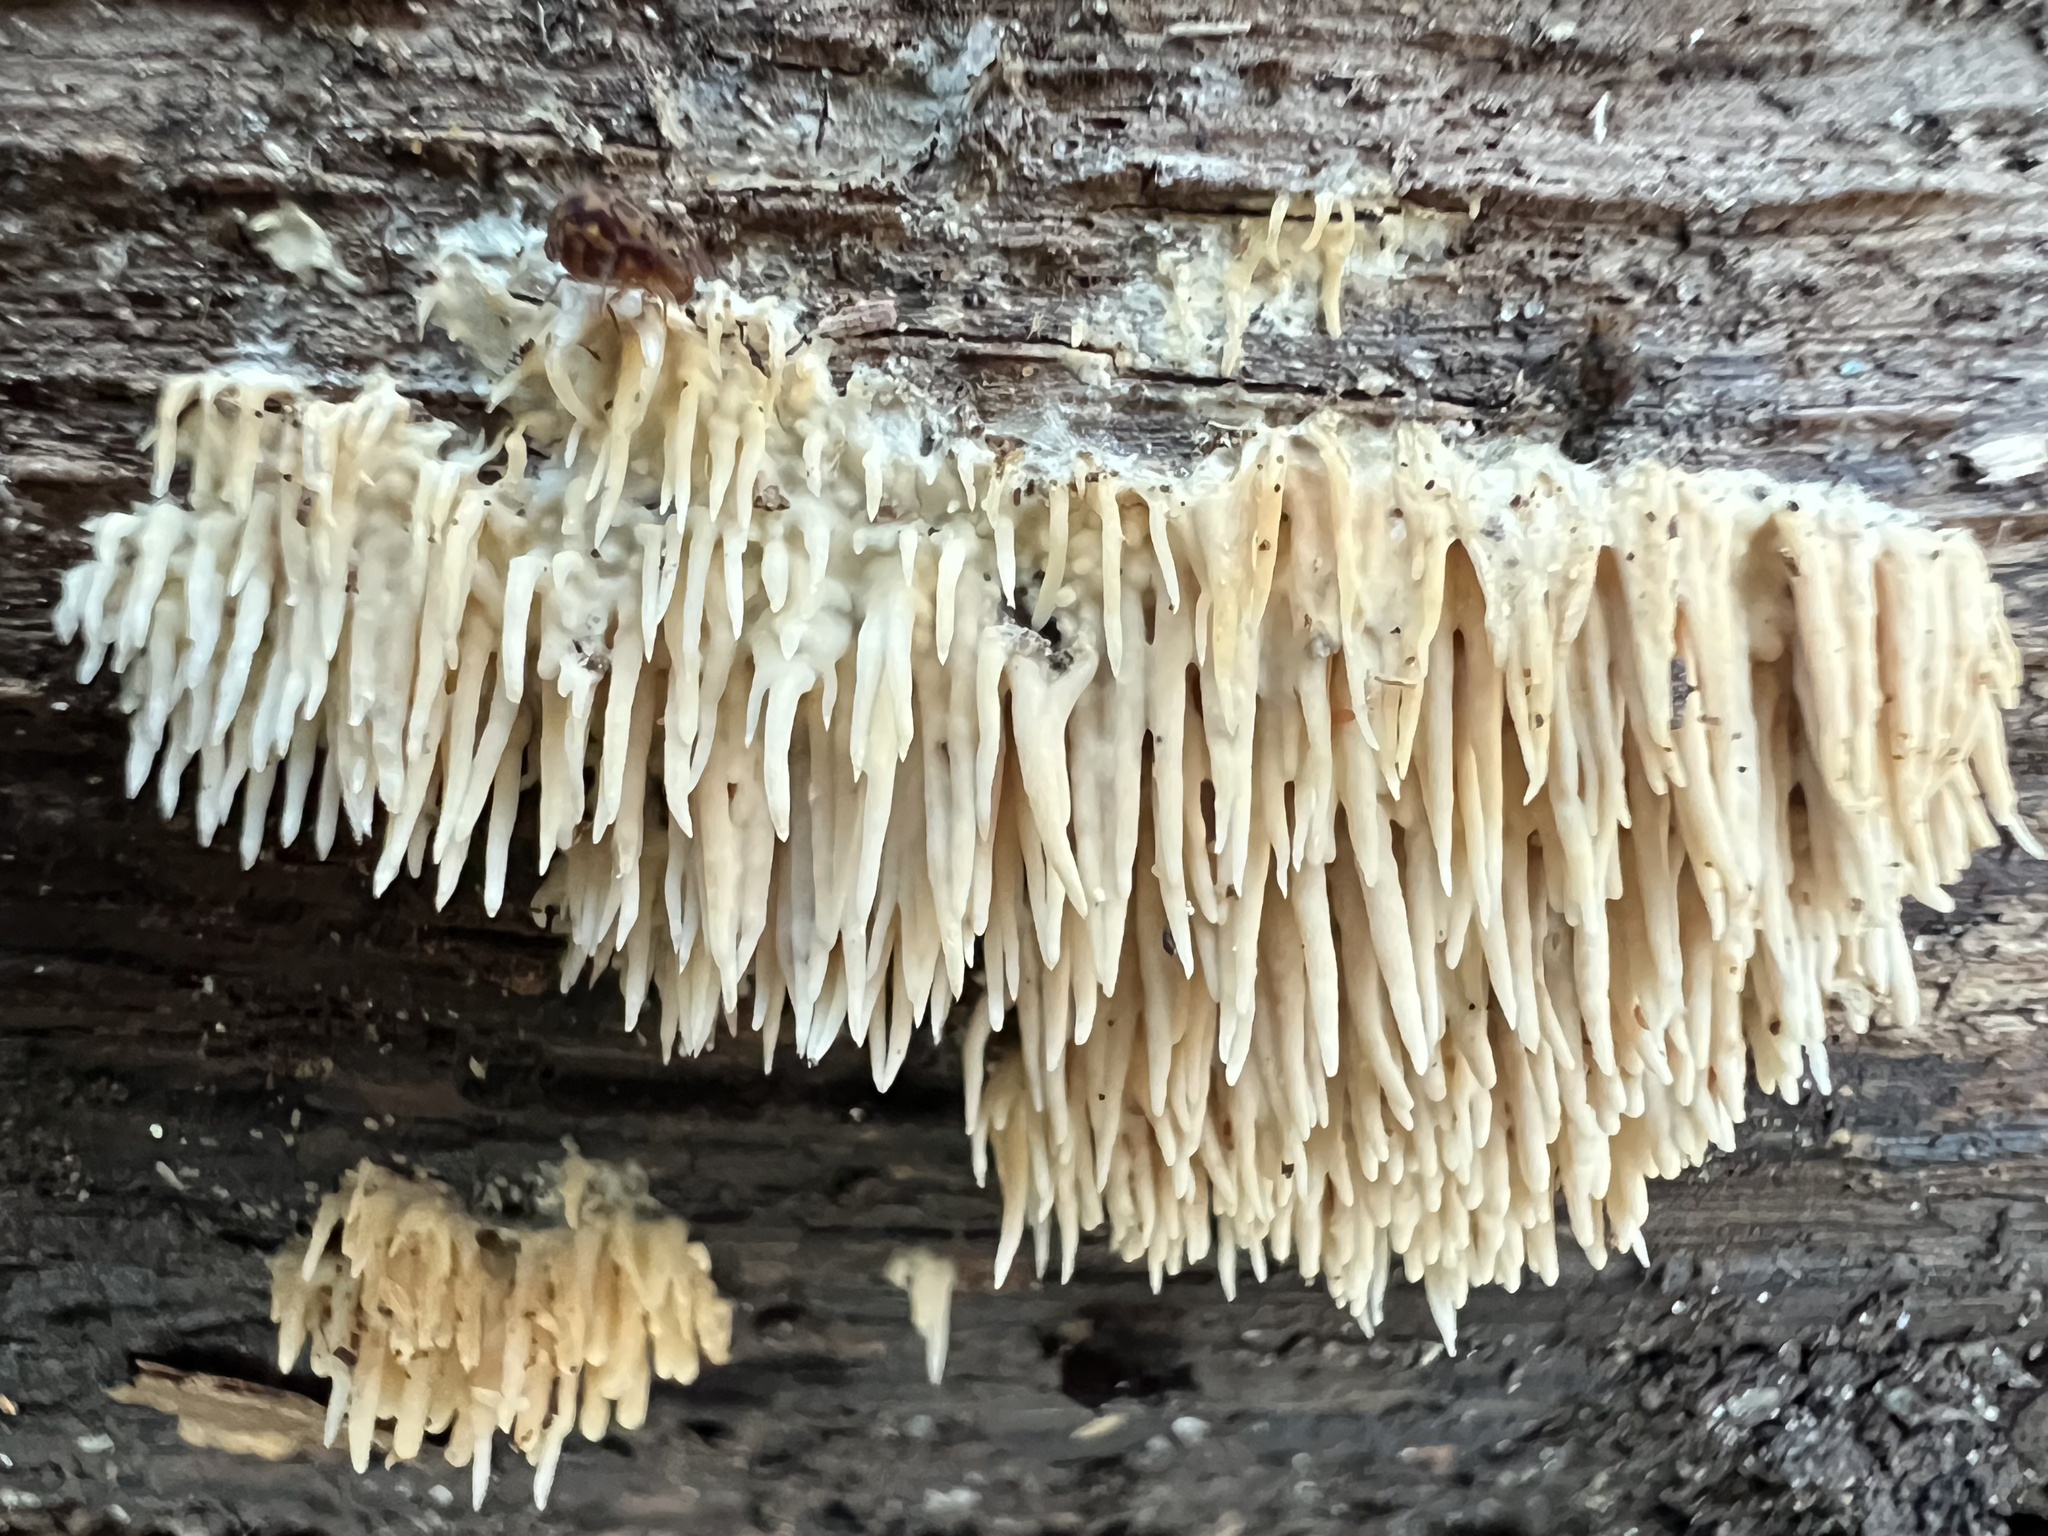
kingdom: Fungi
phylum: Basidiomycota
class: Agaricomycetes
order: Agaricales
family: Radulomycetaceae
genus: Radulomyces
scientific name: Radulomyces copelandii
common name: Asian beauty
